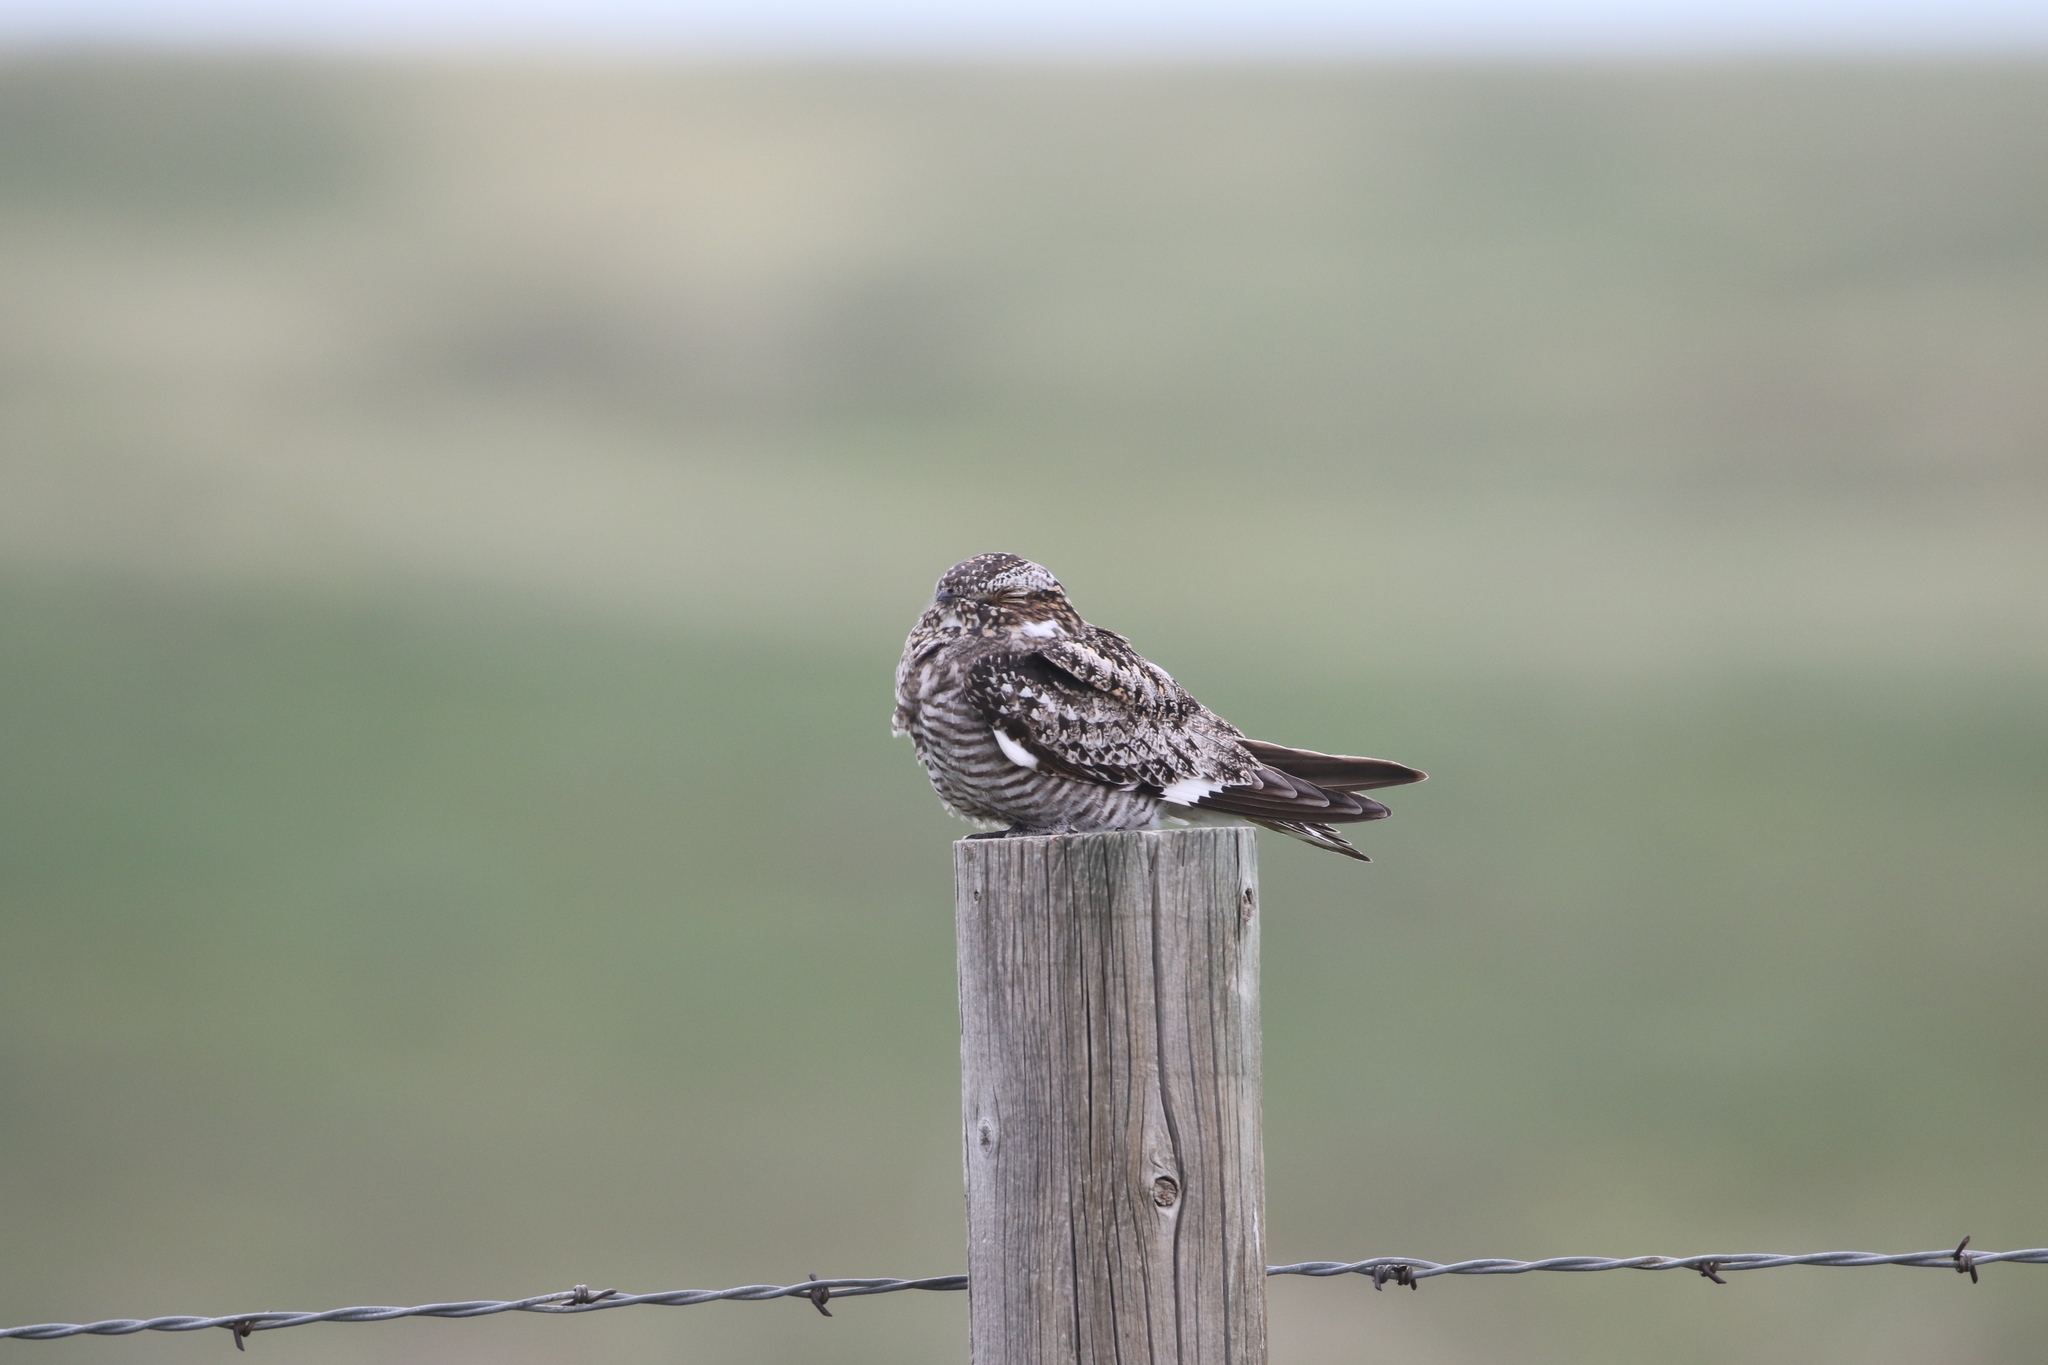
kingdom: Animalia
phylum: Chordata
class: Aves
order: Caprimulgiformes
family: Caprimulgidae
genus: Chordeiles
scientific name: Chordeiles minor
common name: Common nighthawk
